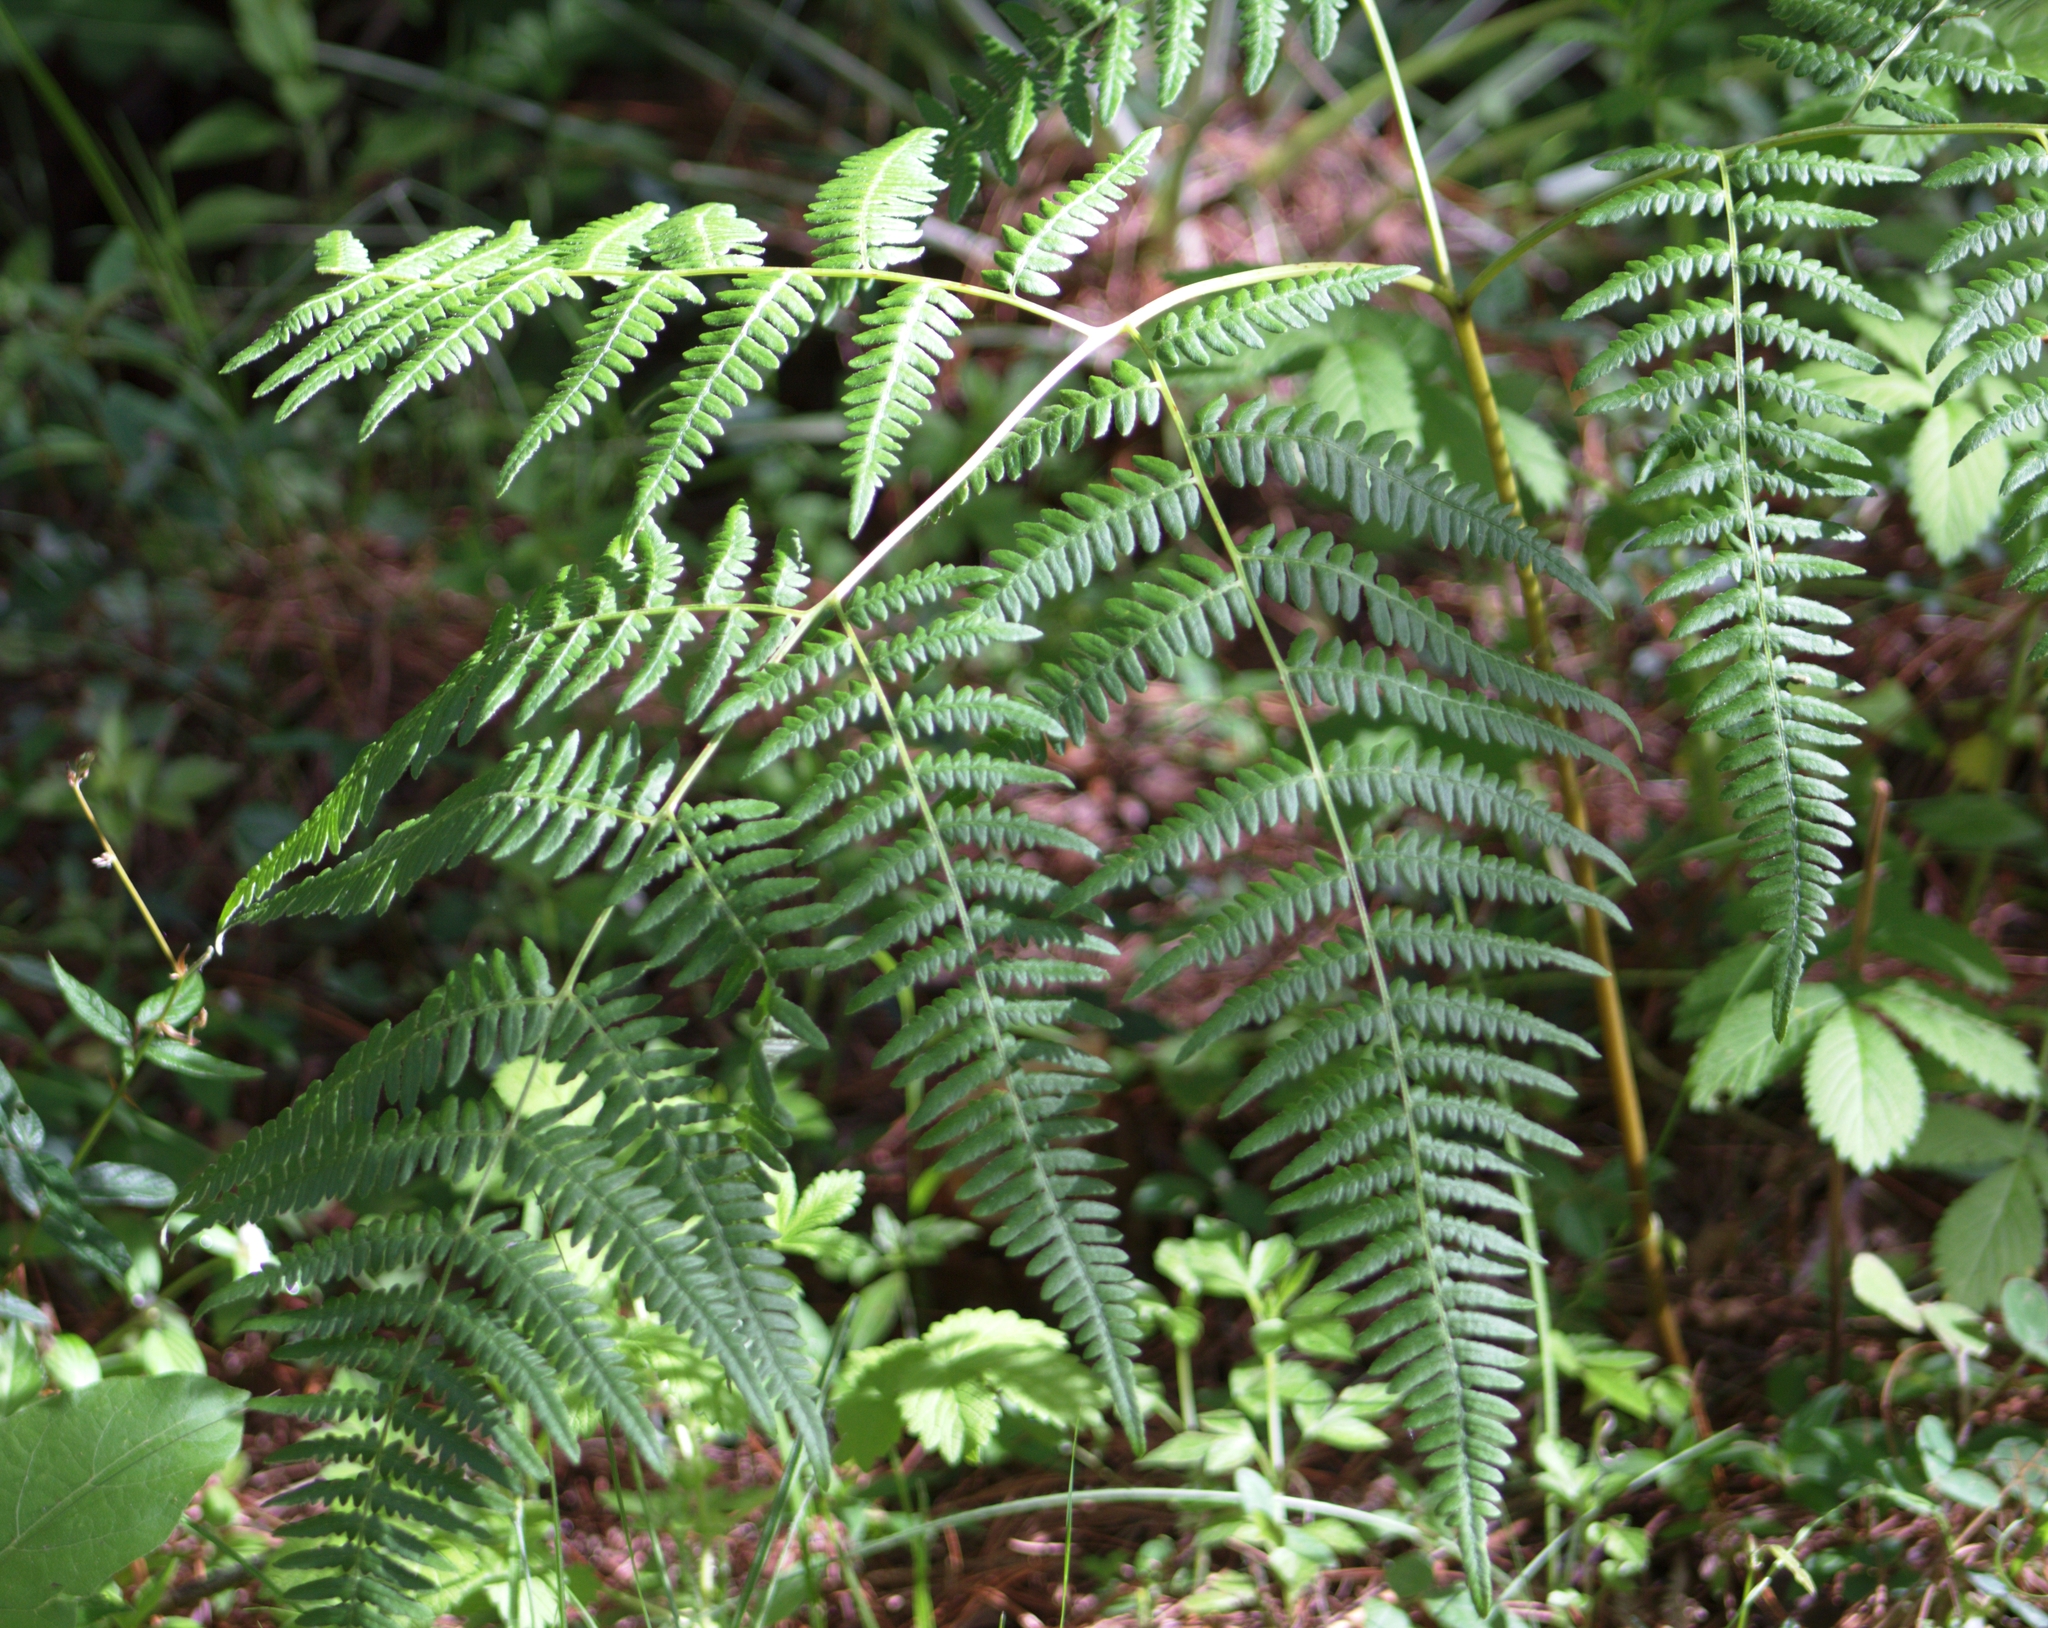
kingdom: Plantae
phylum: Tracheophyta
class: Polypodiopsida
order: Polypodiales
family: Dennstaedtiaceae
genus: Pteridium
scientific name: Pteridium aquilinum
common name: Bracken
